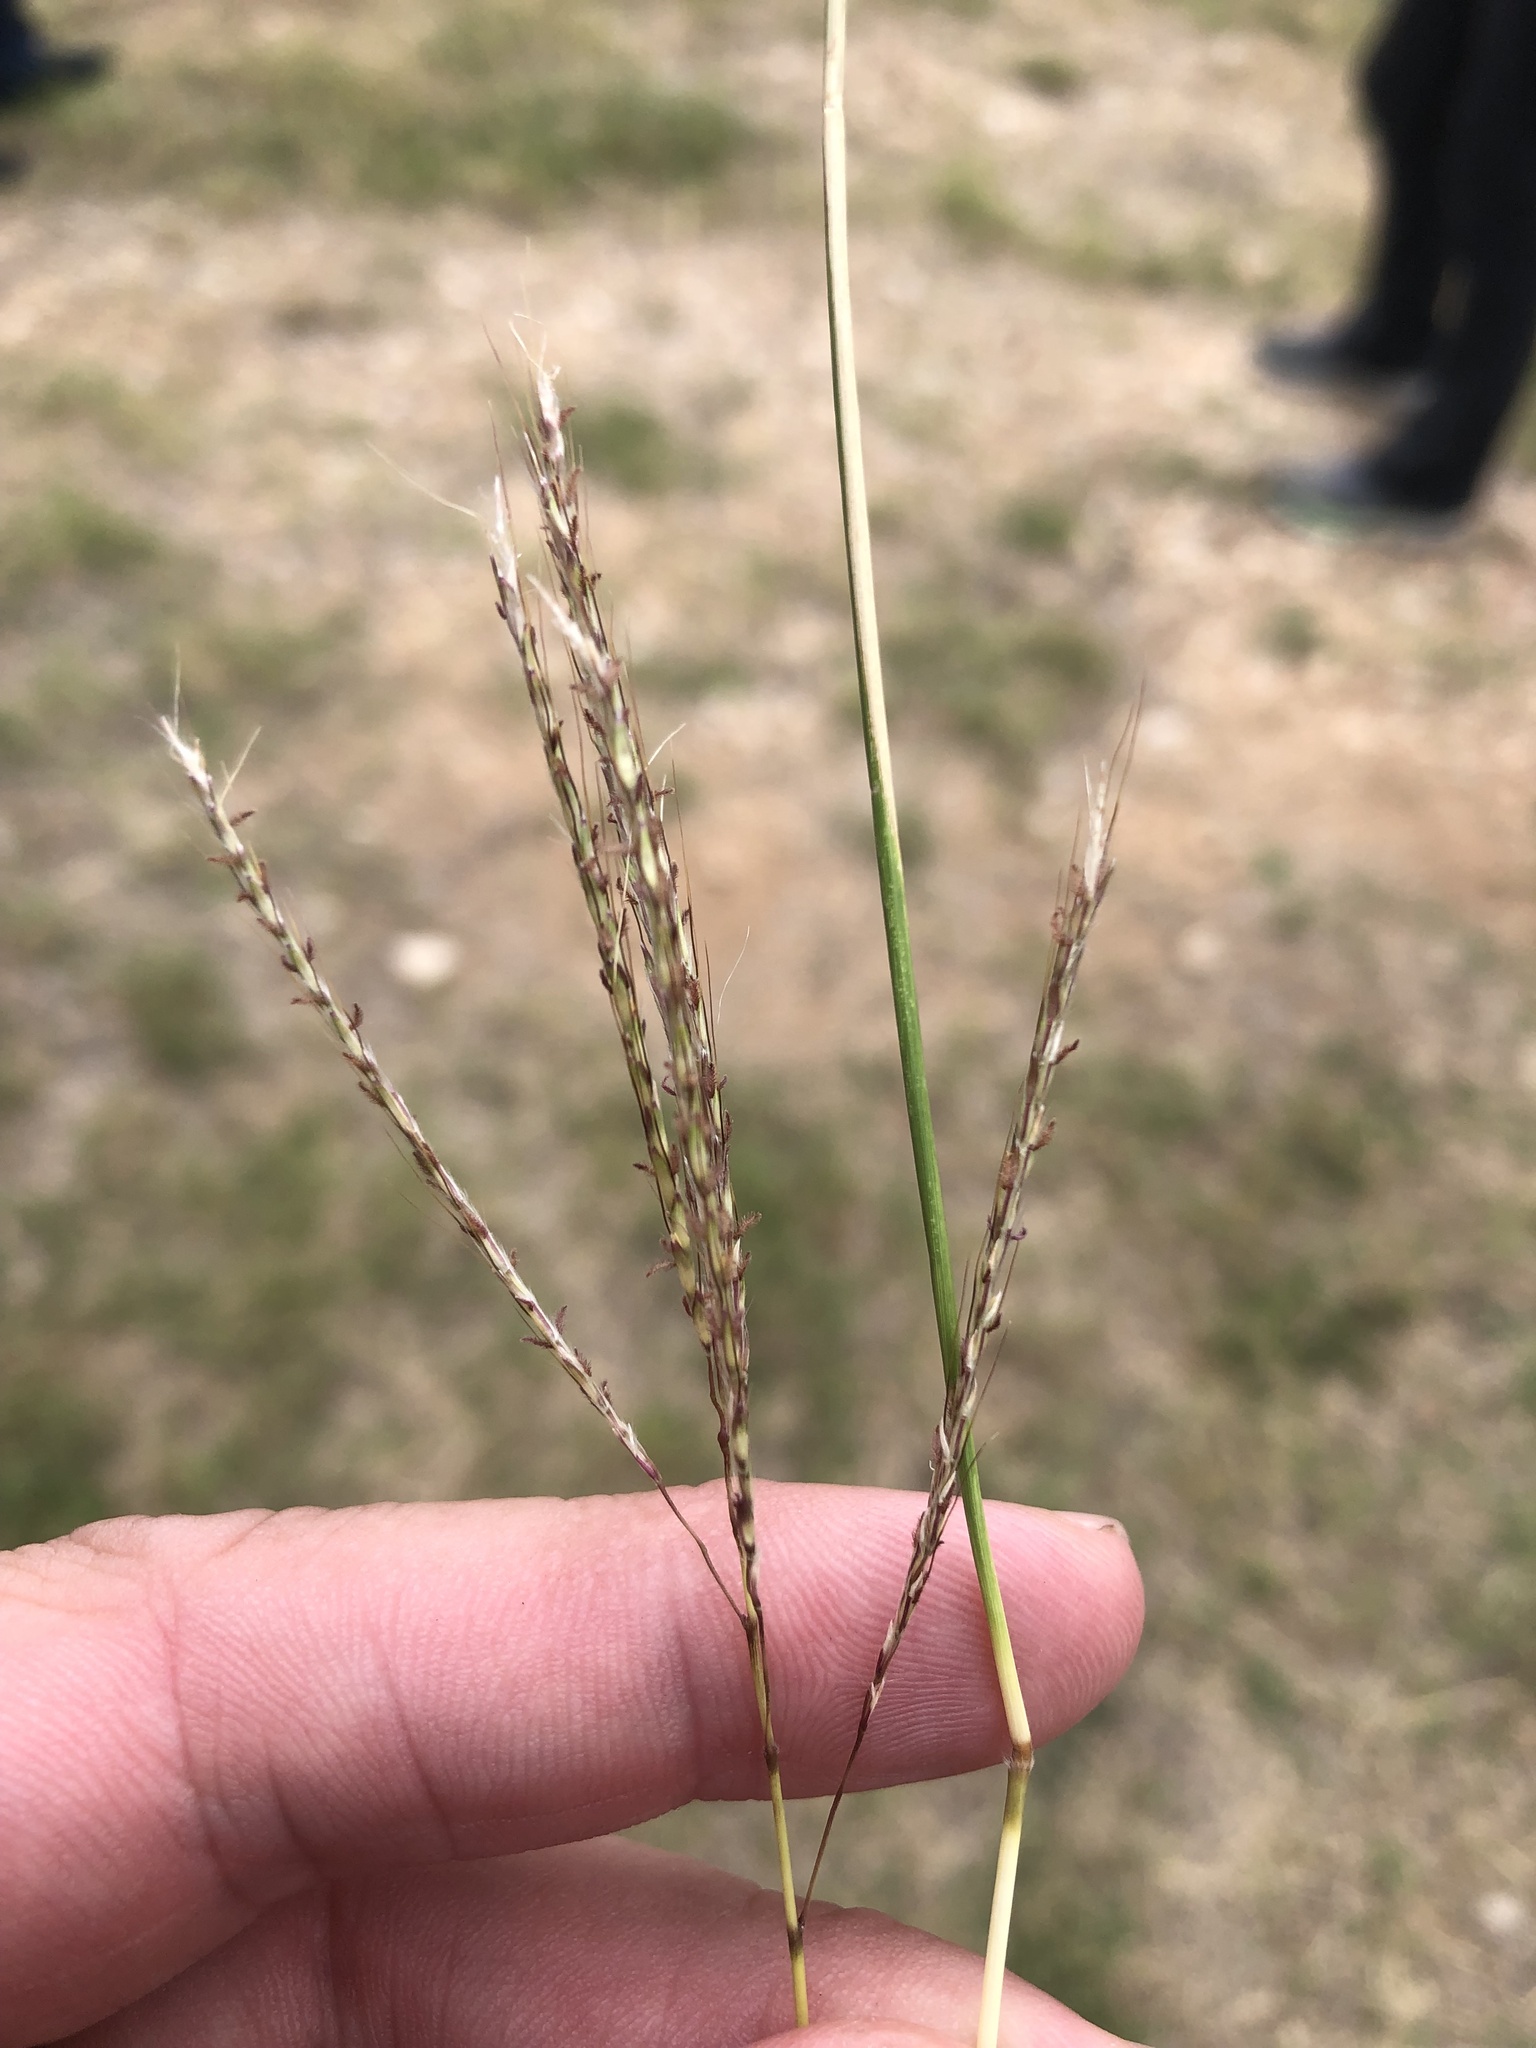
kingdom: Plantae
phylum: Tracheophyta
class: Liliopsida
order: Poales
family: Poaceae
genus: Bothriochloa
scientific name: Bothriochloa ischaemum
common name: Yellow bluestem
